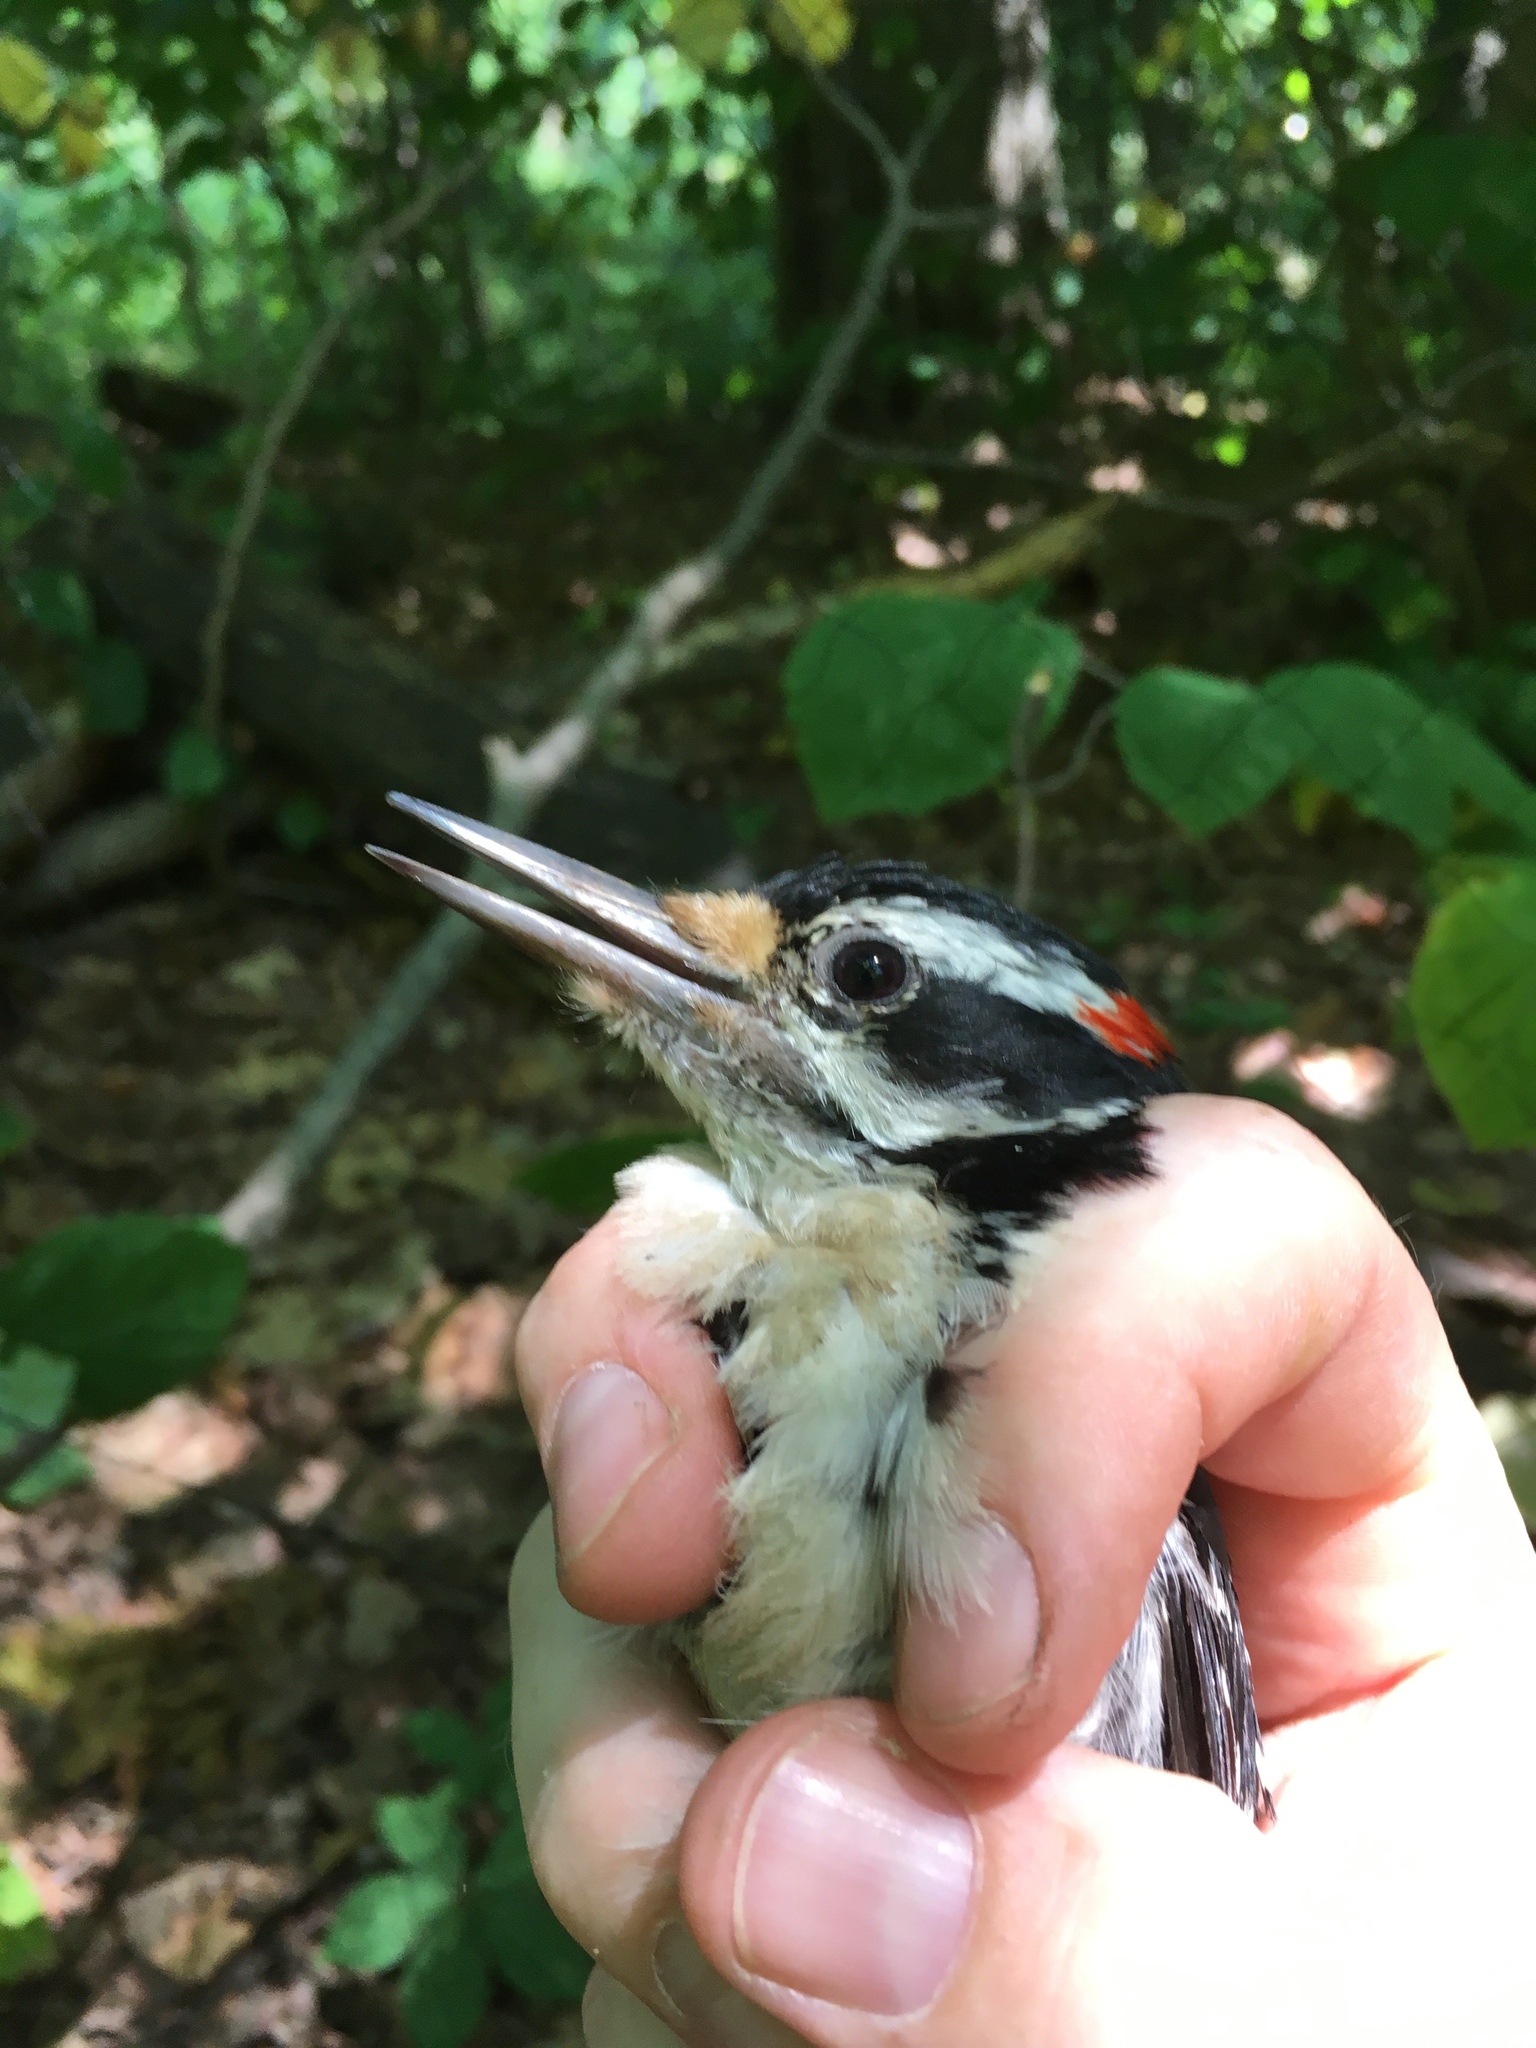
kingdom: Animalia
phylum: Chordata
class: Aves
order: Piciformes
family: Picidae
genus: Leuconotopicus
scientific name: Leuconotopicus villosus
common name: Hairy woodpecker
